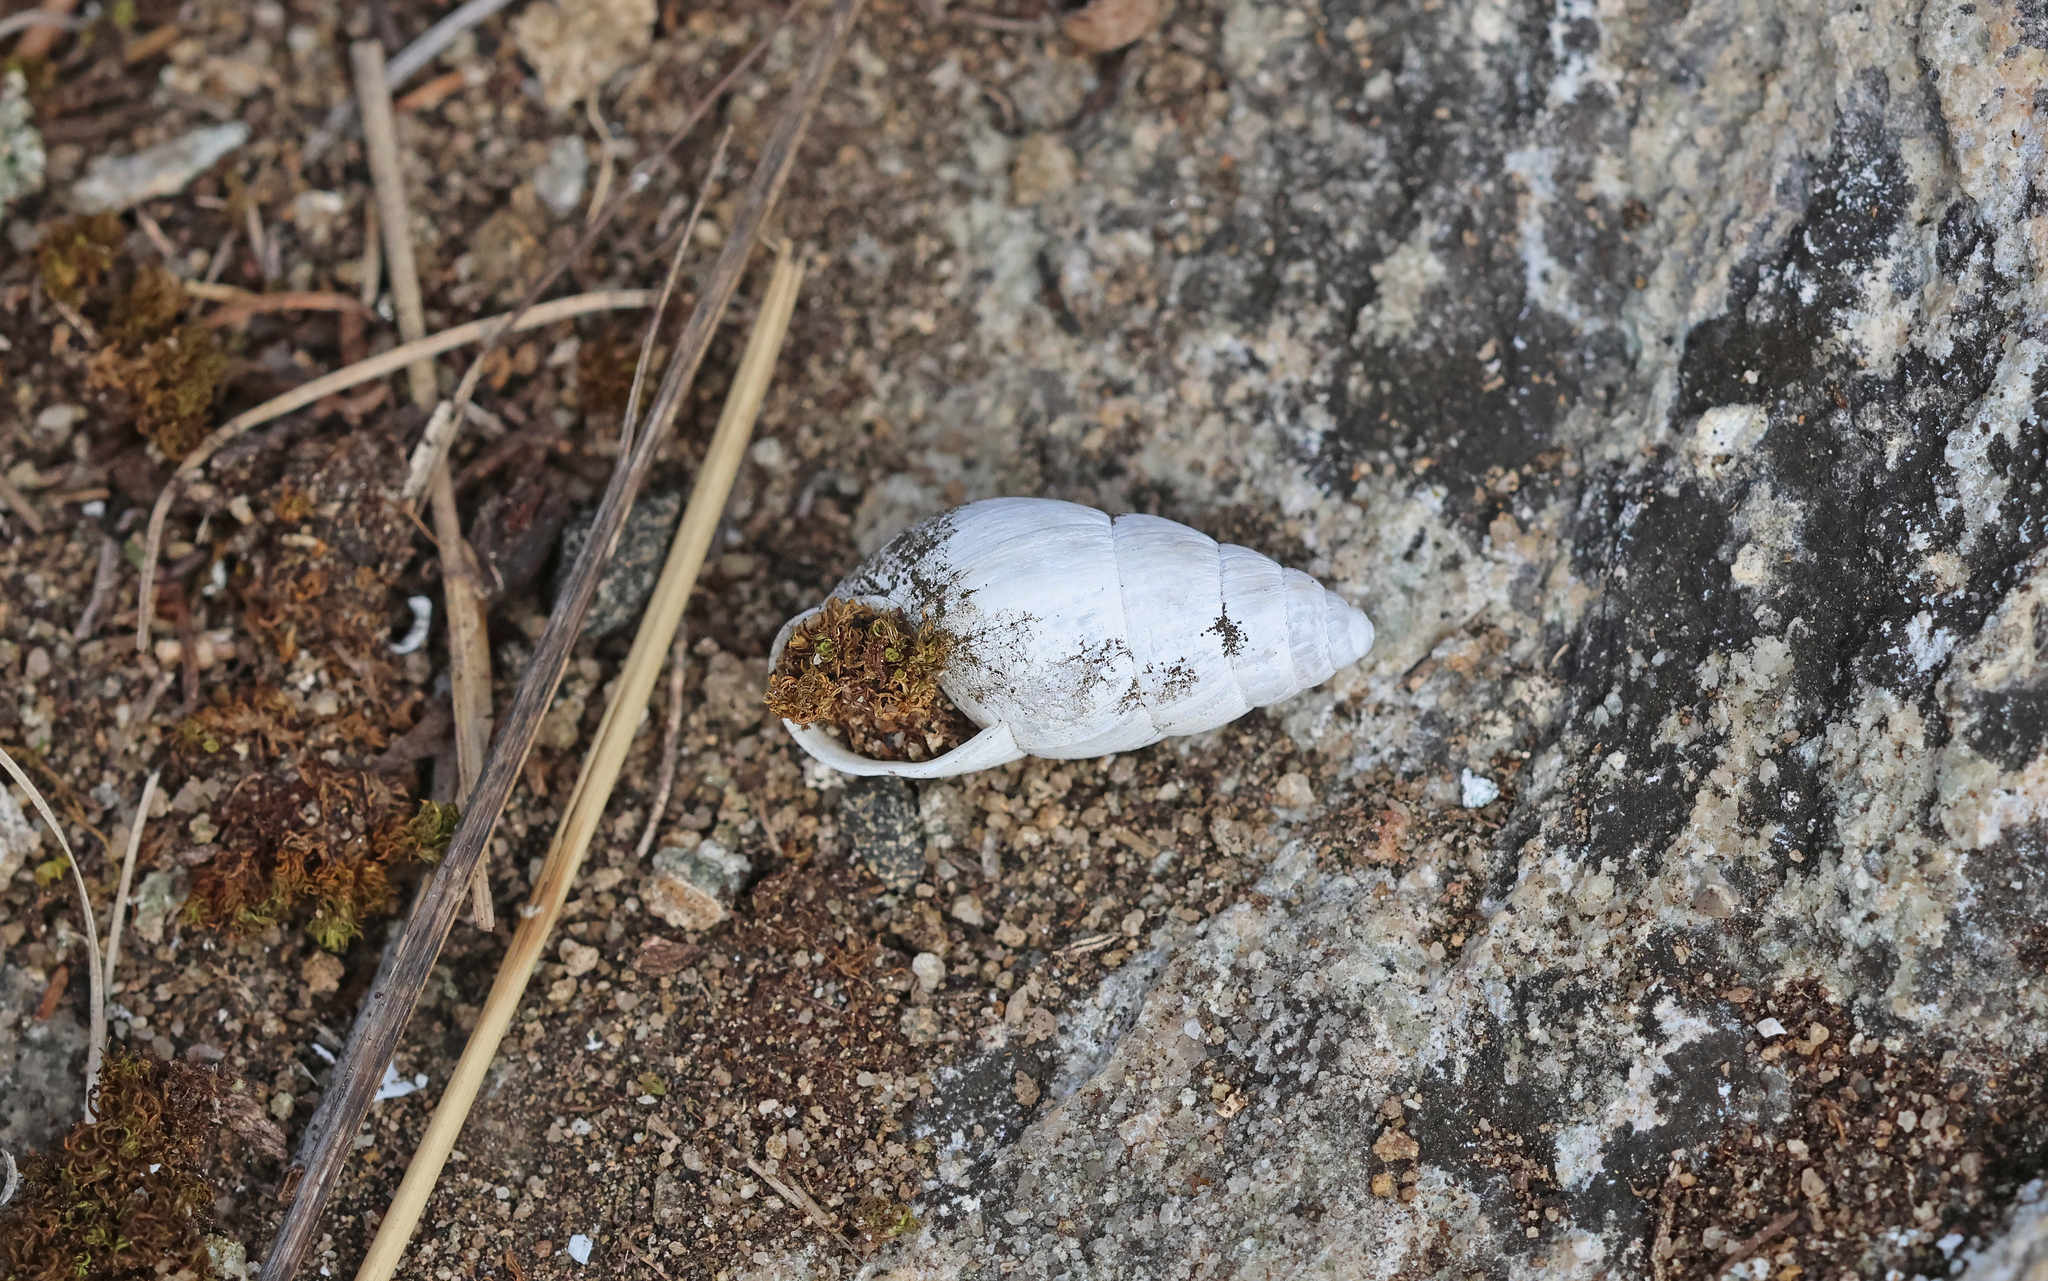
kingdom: Animalia
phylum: Mollusca
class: Gastropoda
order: Stylommatophora
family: Enidae
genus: Zebrina
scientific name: Zebrina detrita
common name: Large bulin
